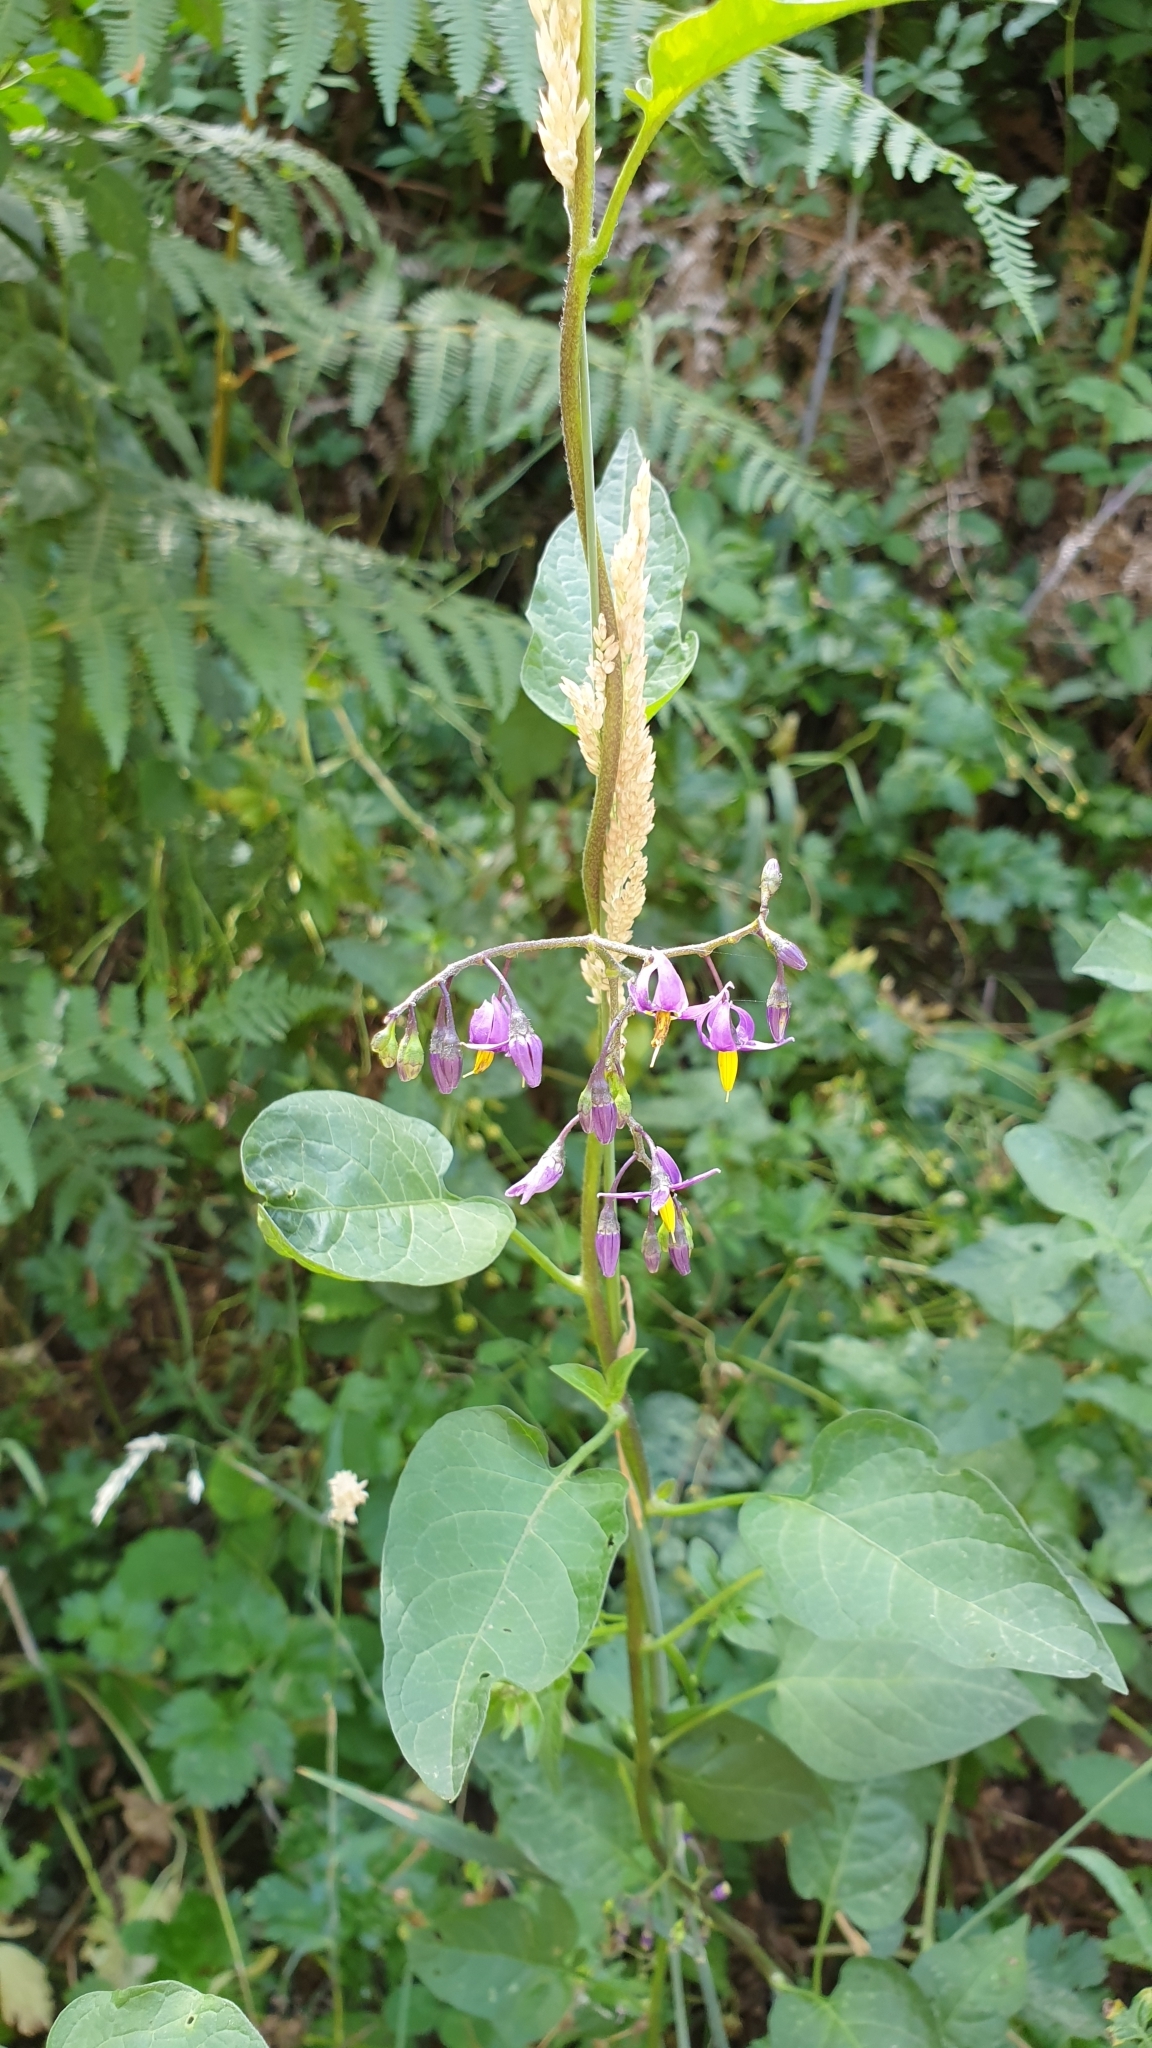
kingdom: Plantae
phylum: Tracheophyta
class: Magnoliopsida
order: Solanales
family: Solanaceae
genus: Solanum
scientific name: Solanum dulcamara
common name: Climbing nightshade
